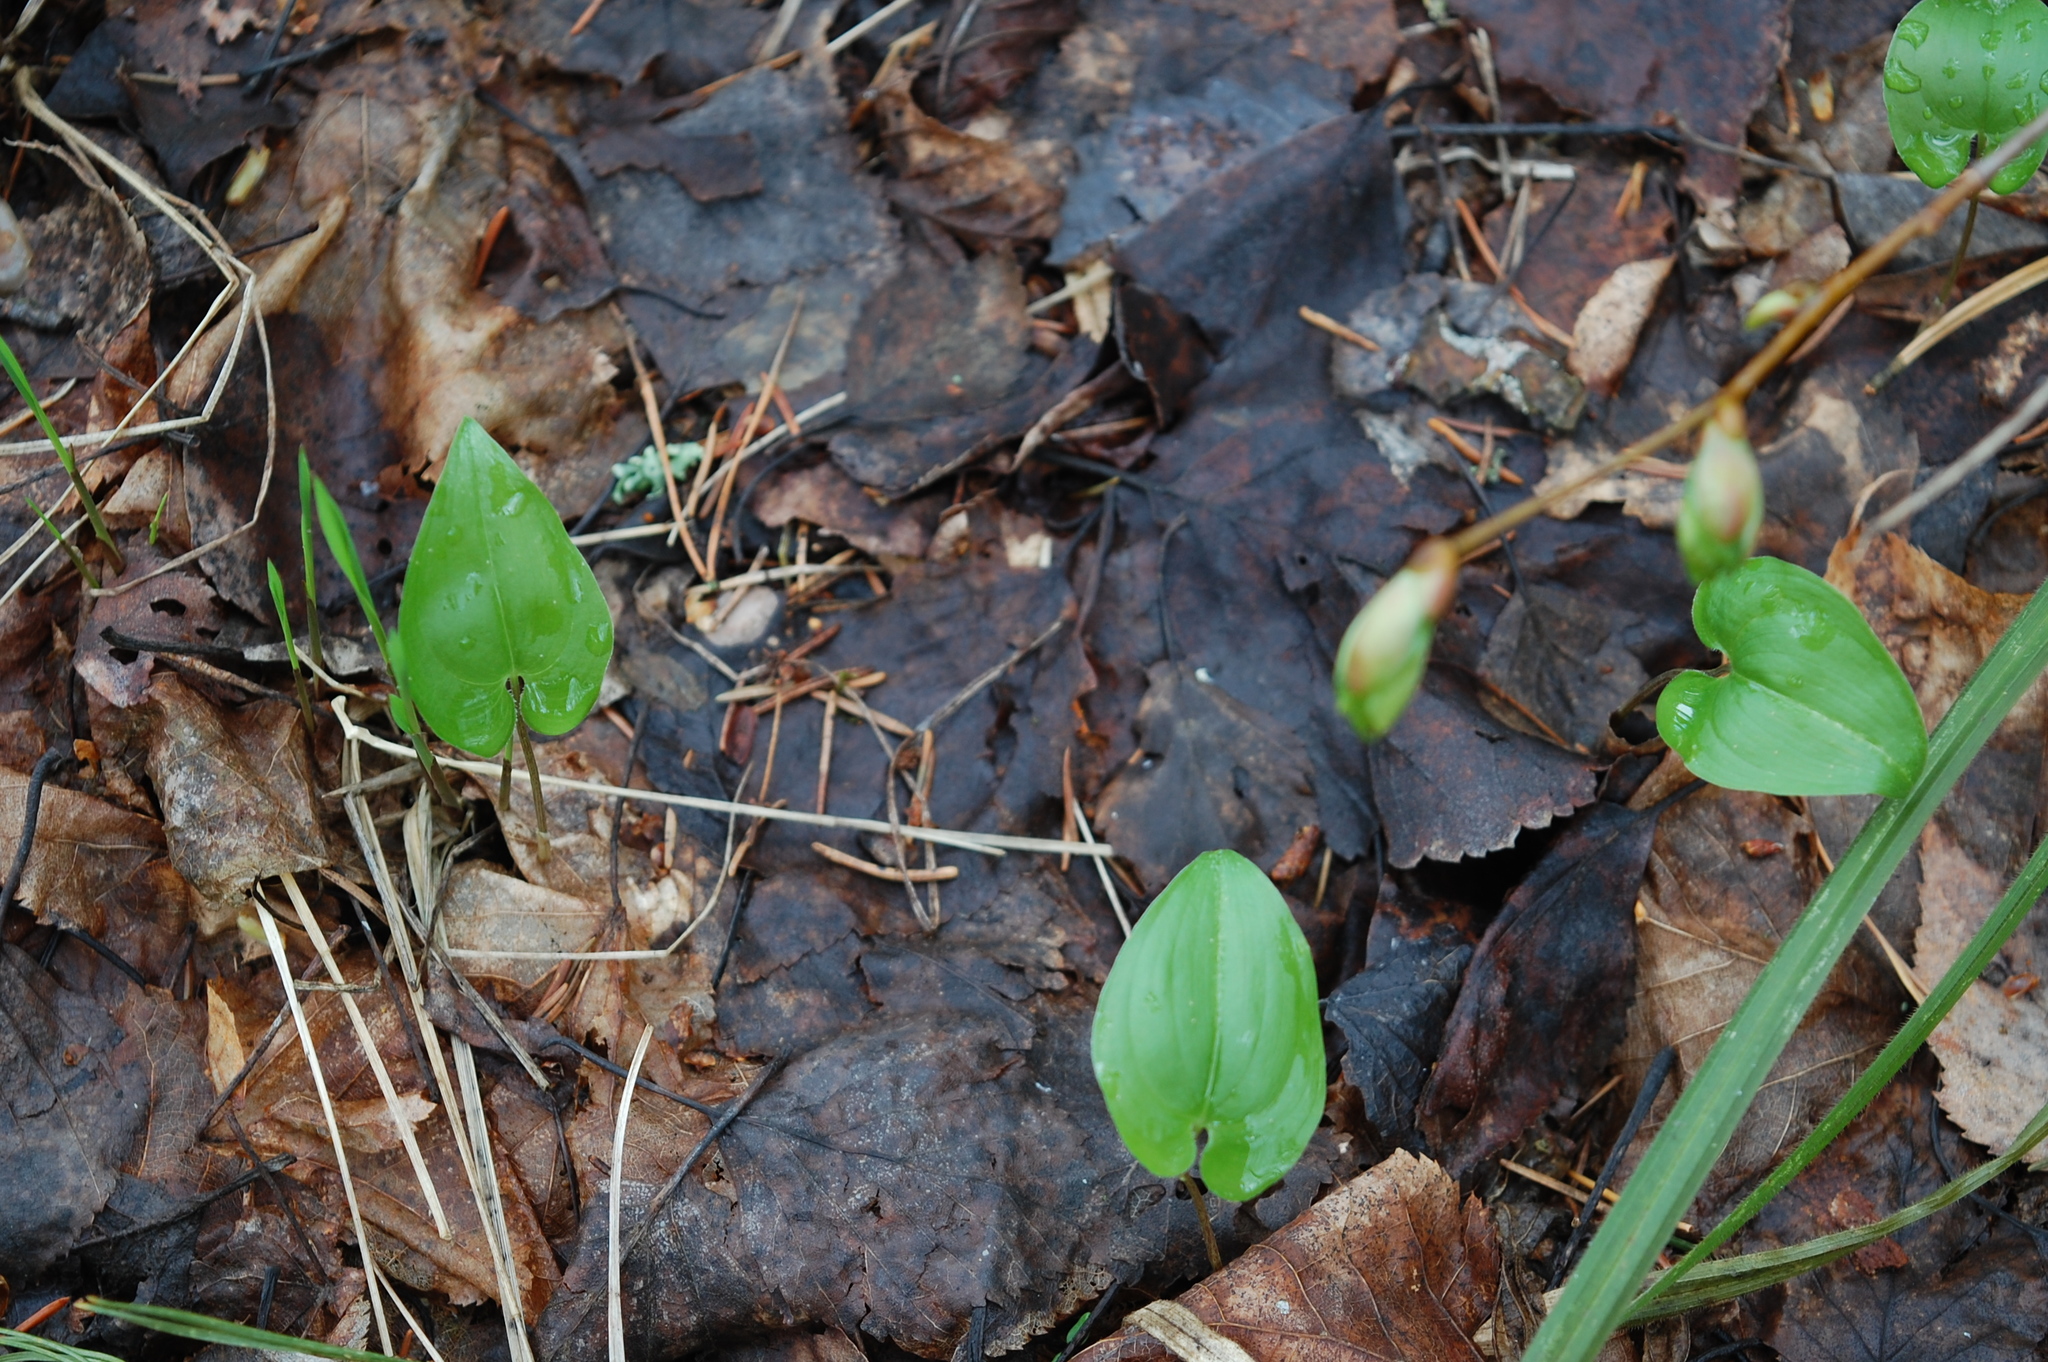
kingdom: Plantae
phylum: Tracheophyta
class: Liliopsida
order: Asparagales
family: Asparagaceae
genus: Maianthemum
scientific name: Maianthemum bifolium
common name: May lily
